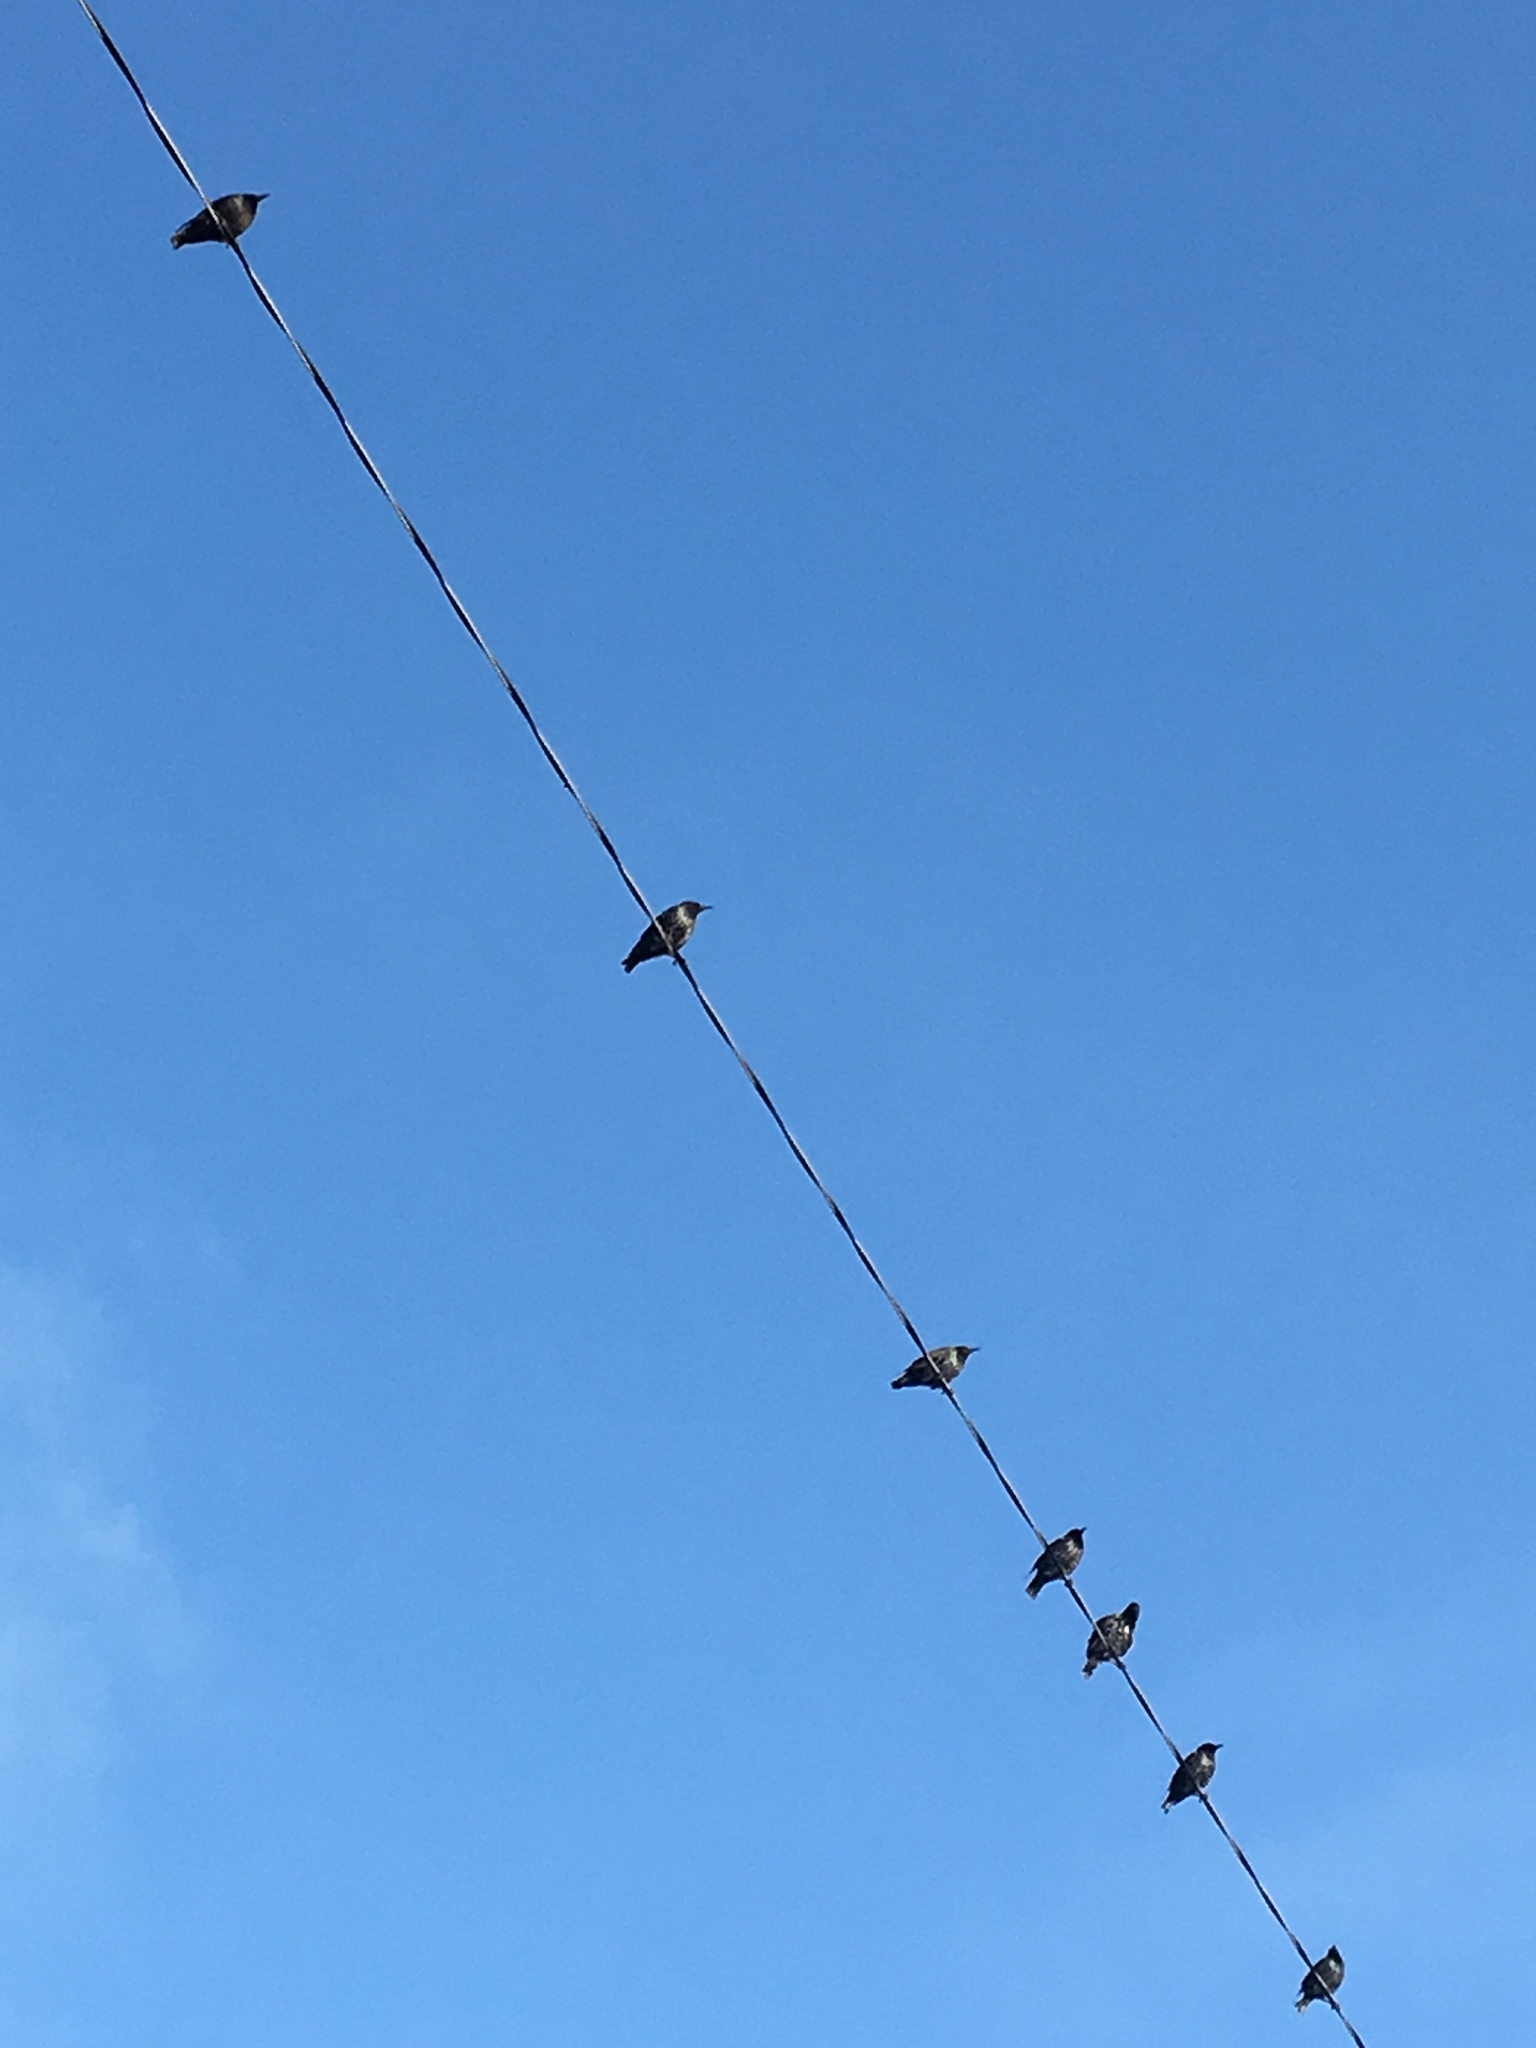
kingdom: Animalia
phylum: Chordata
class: Aves
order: Passeriformes
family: Sturnidae
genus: Sturnus
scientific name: Sturnus vulgaris
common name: Common starling
